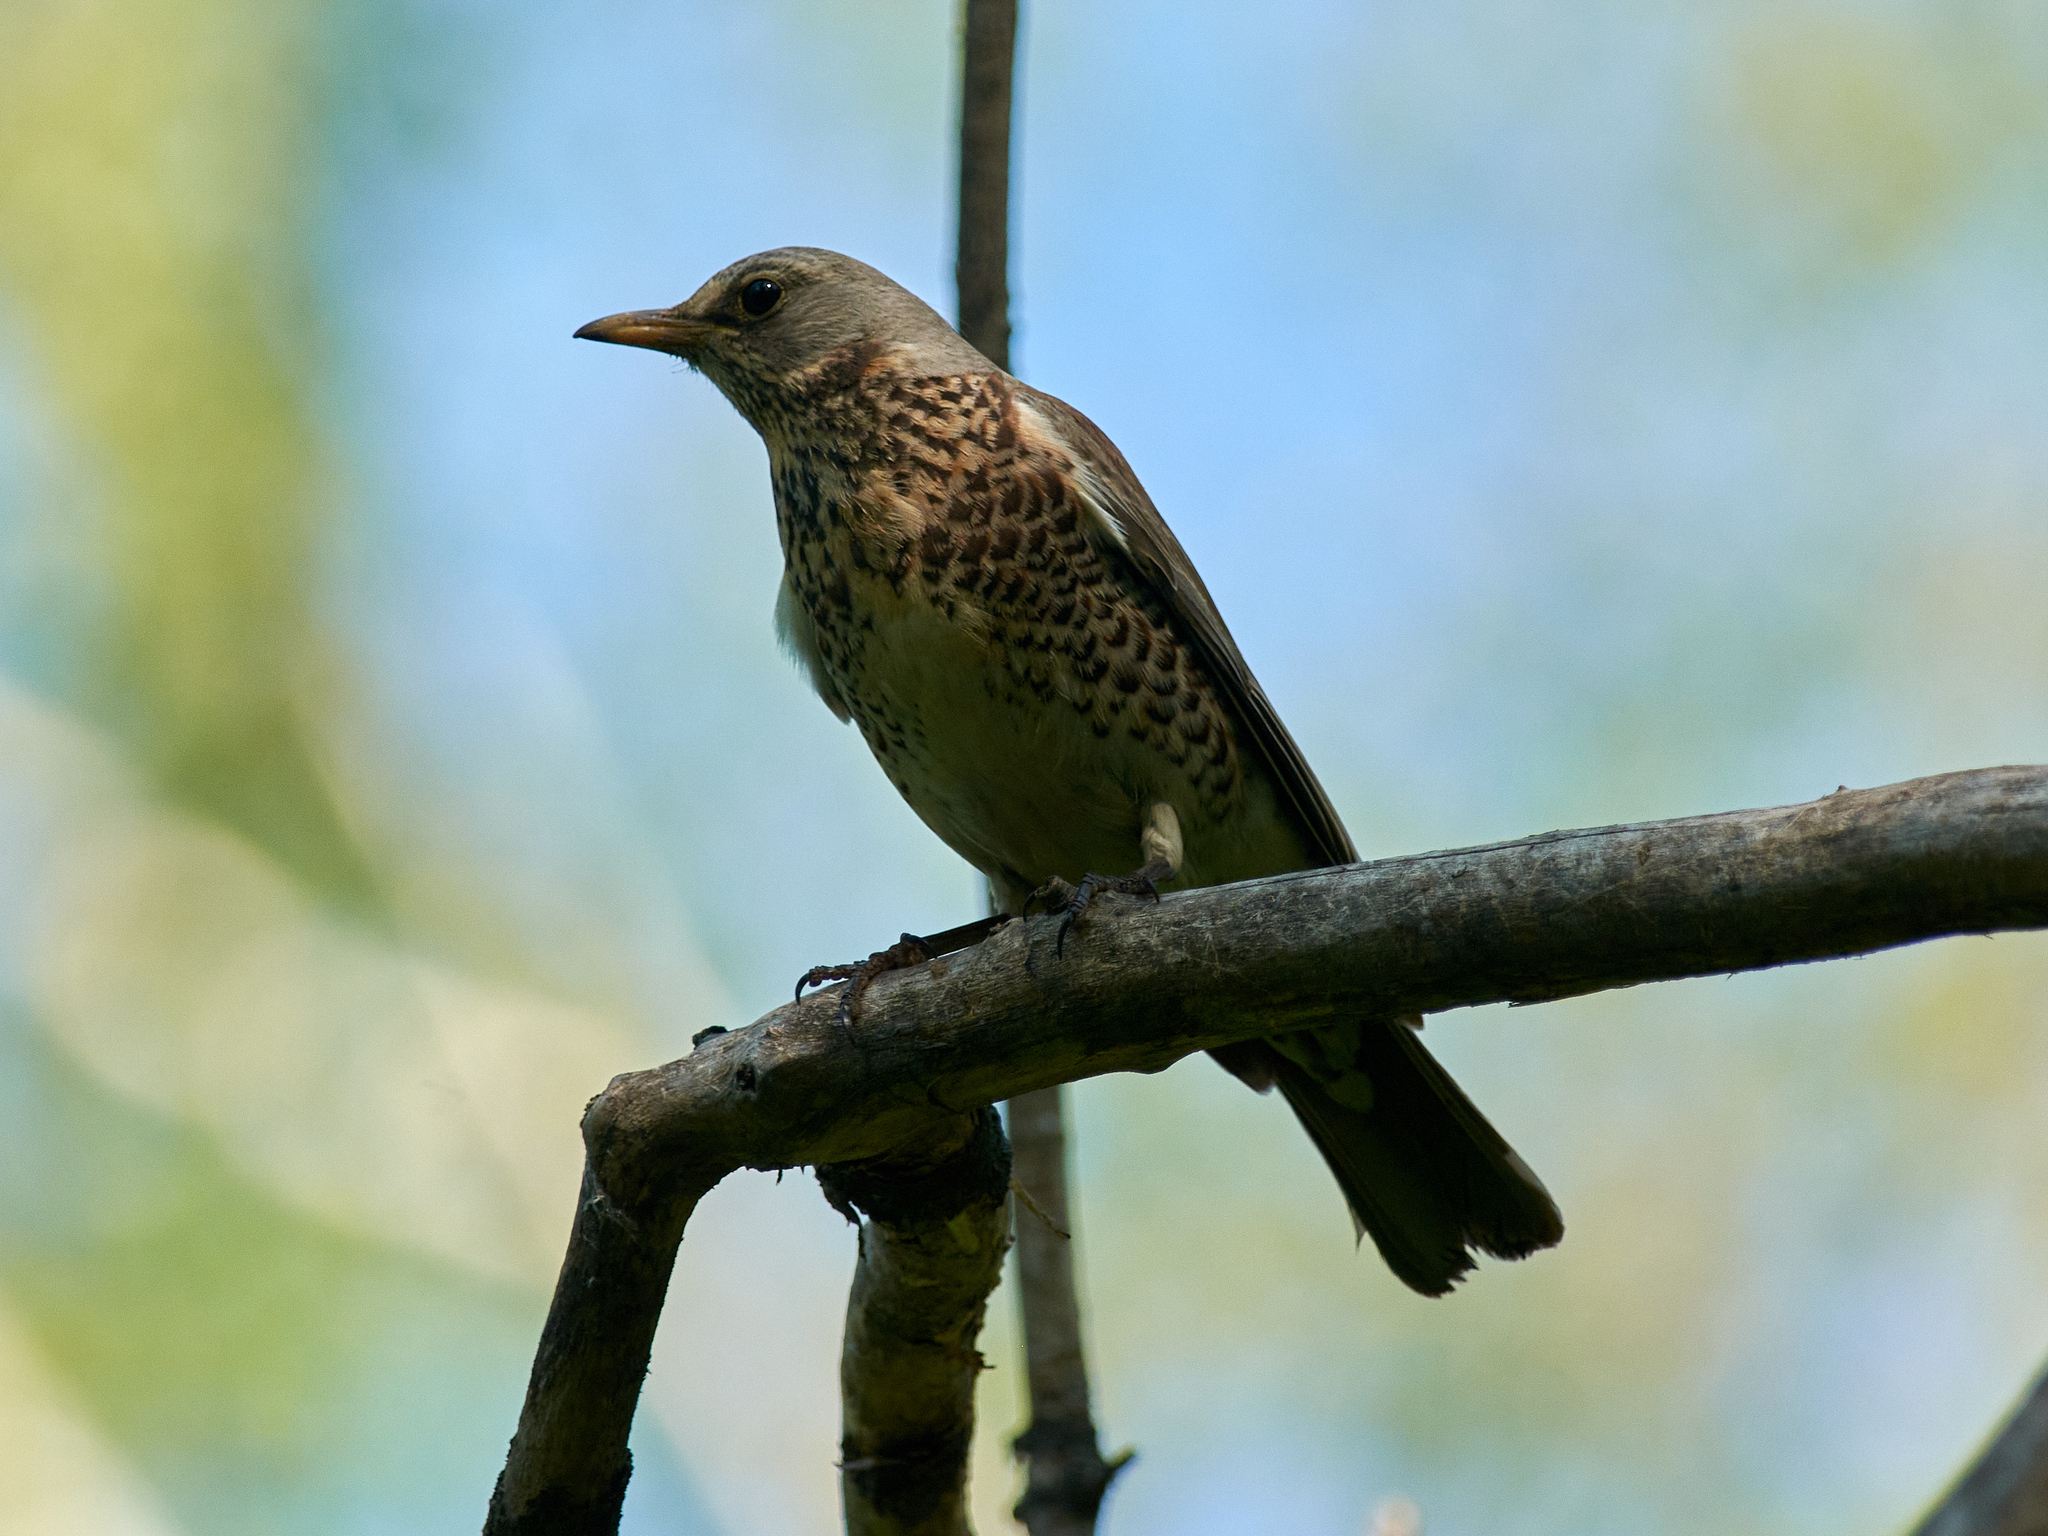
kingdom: Animalia
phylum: Chordata
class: Aves
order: Passeriformes
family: Turdidae
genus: Turdus
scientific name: Turdus pilaris
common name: Fieldfare
